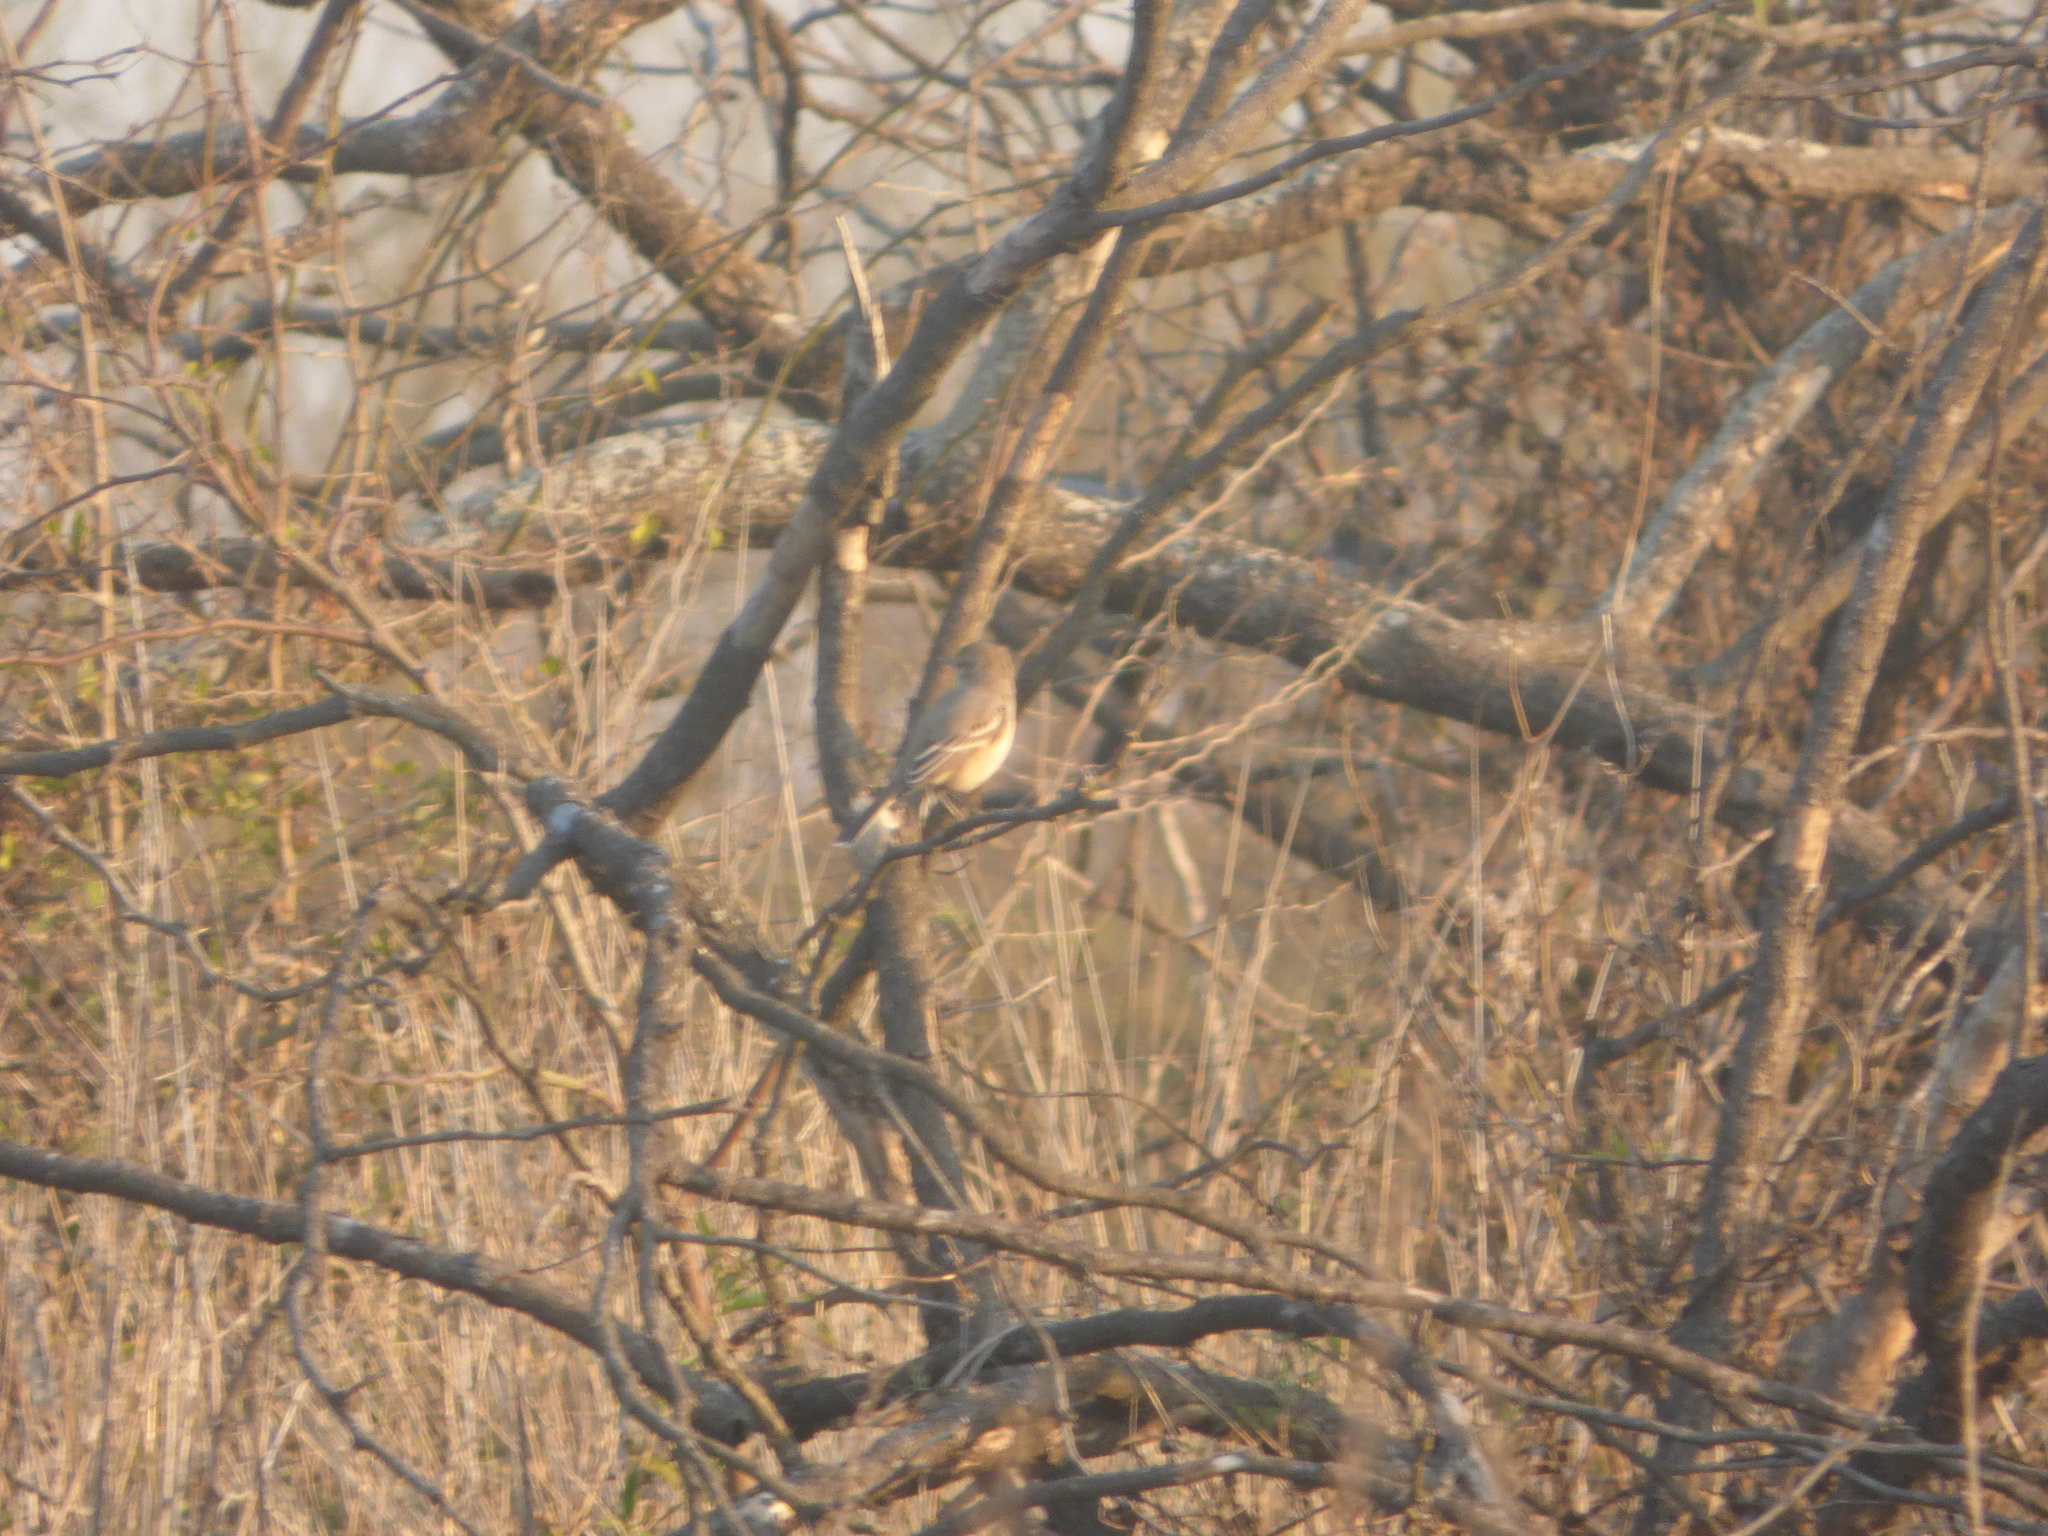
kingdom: Animalia
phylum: Chordata
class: Aves
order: Passeriformes
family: Tyrannidae
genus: Agriornis
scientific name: Agriornis murinus
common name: Lesser shrike-tyrant
